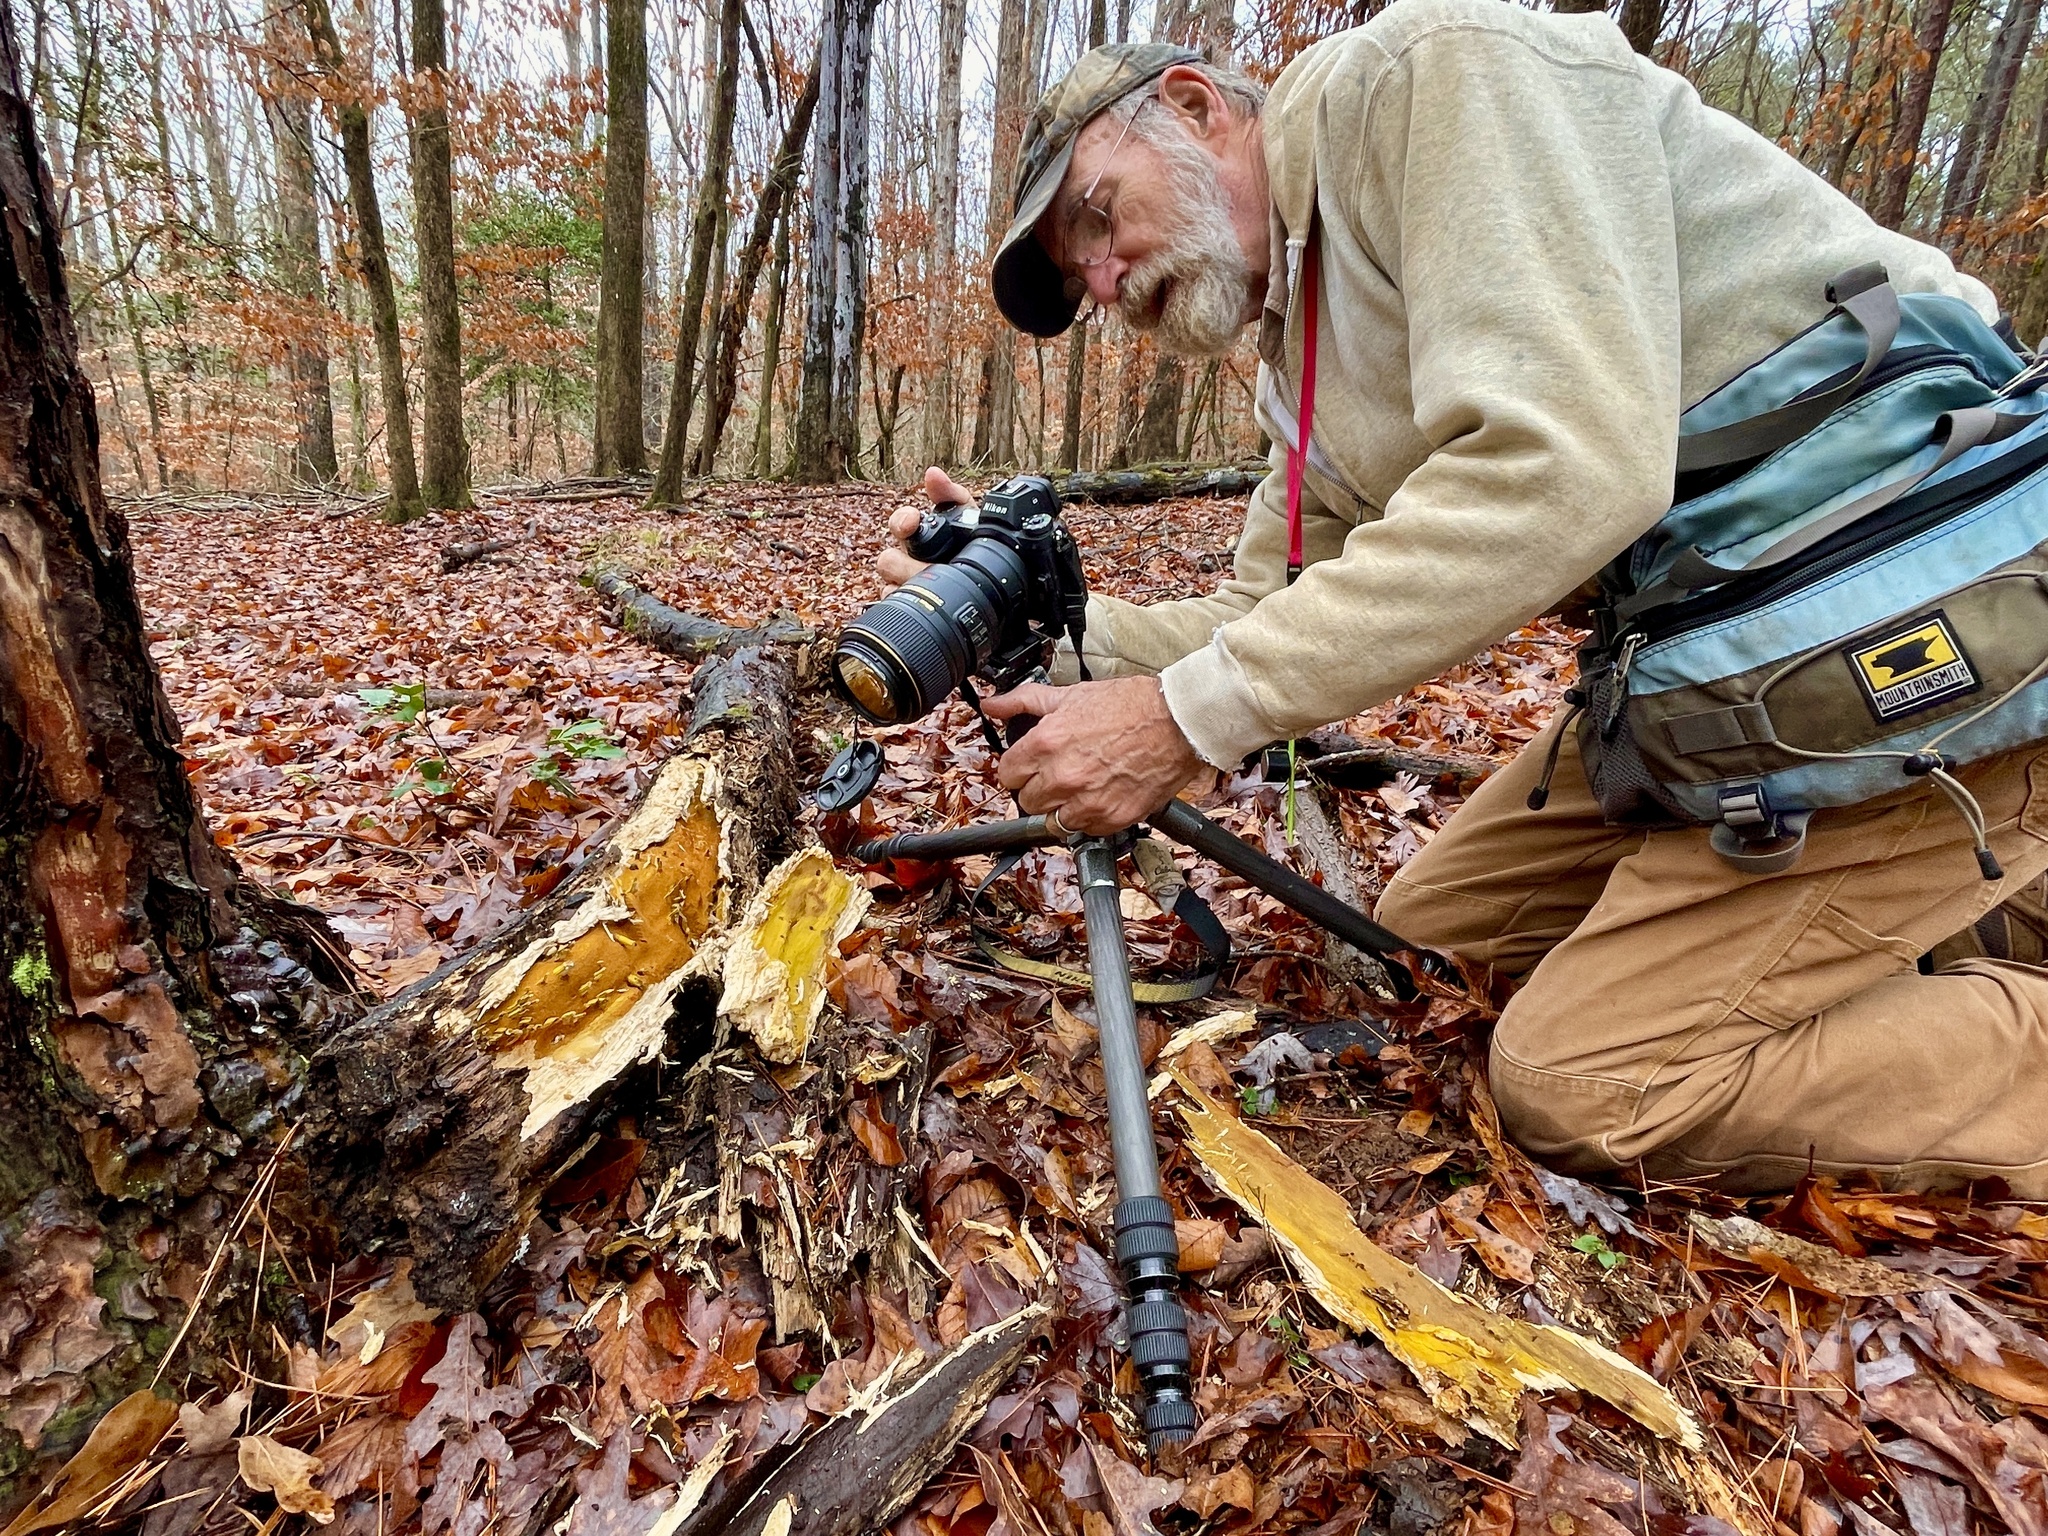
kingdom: Fungi
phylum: Basidiomycota
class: Agaricomycetes
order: Hymenochaetales
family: Hymenochaetaceae
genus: Xanthoporia
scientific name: Xanthoporia andersonii
